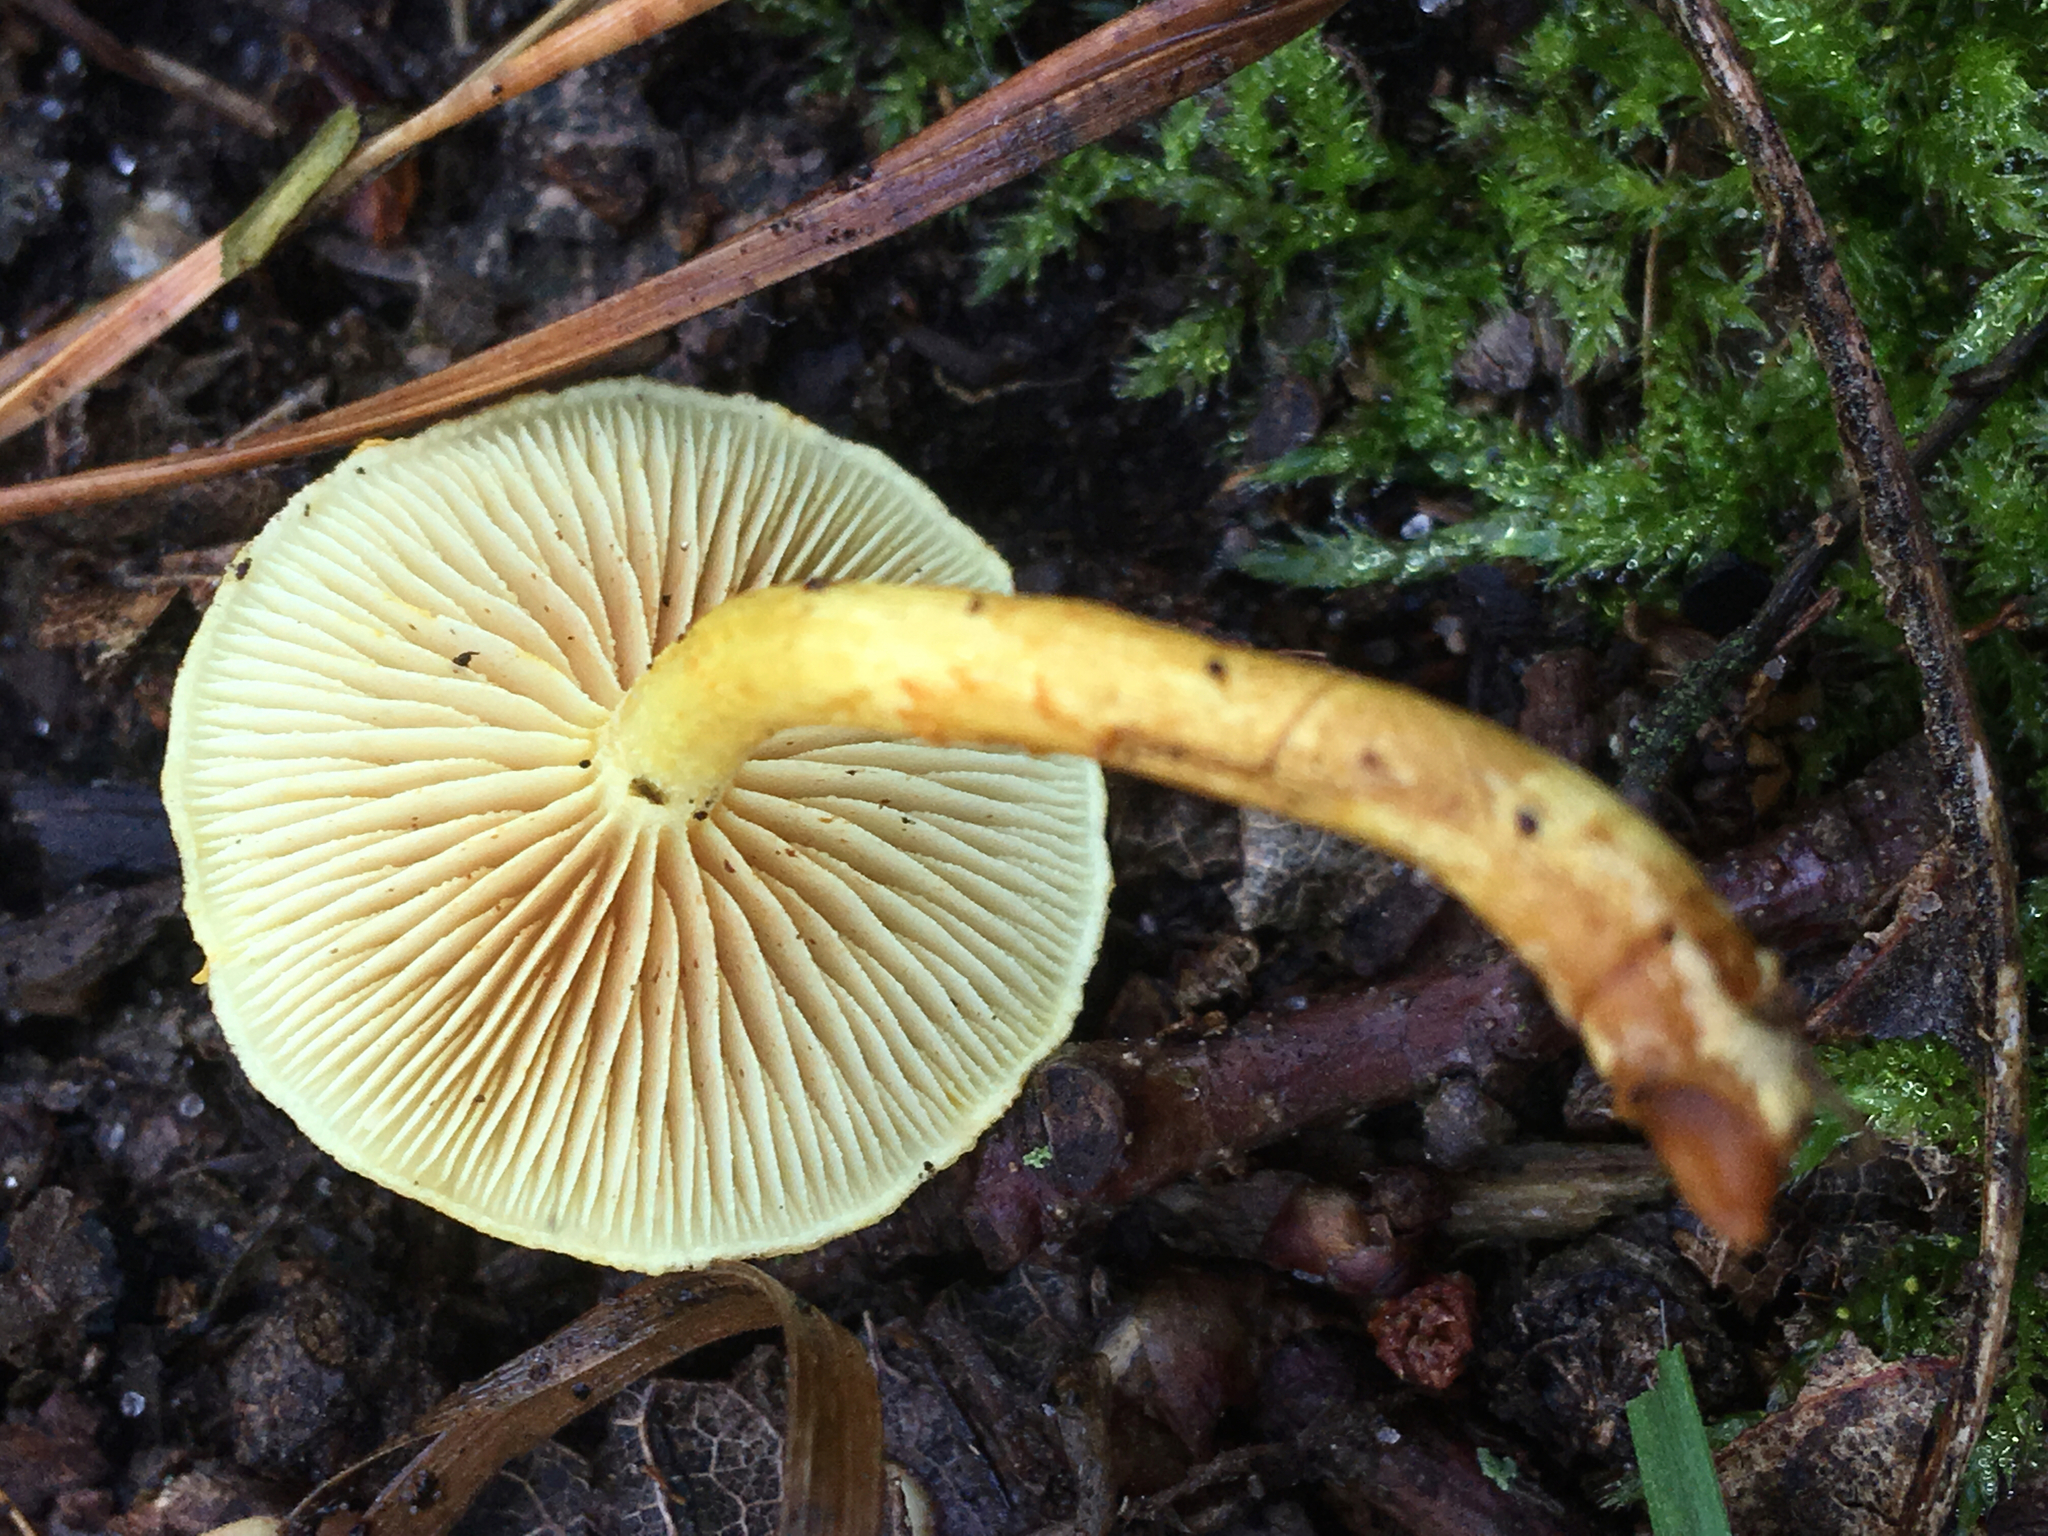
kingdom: Fungi
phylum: Basidiomycota
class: Agaricomycetes
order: Agaricales
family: Strophariaceae
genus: Pholiota
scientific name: Pholiota tuberculosa
